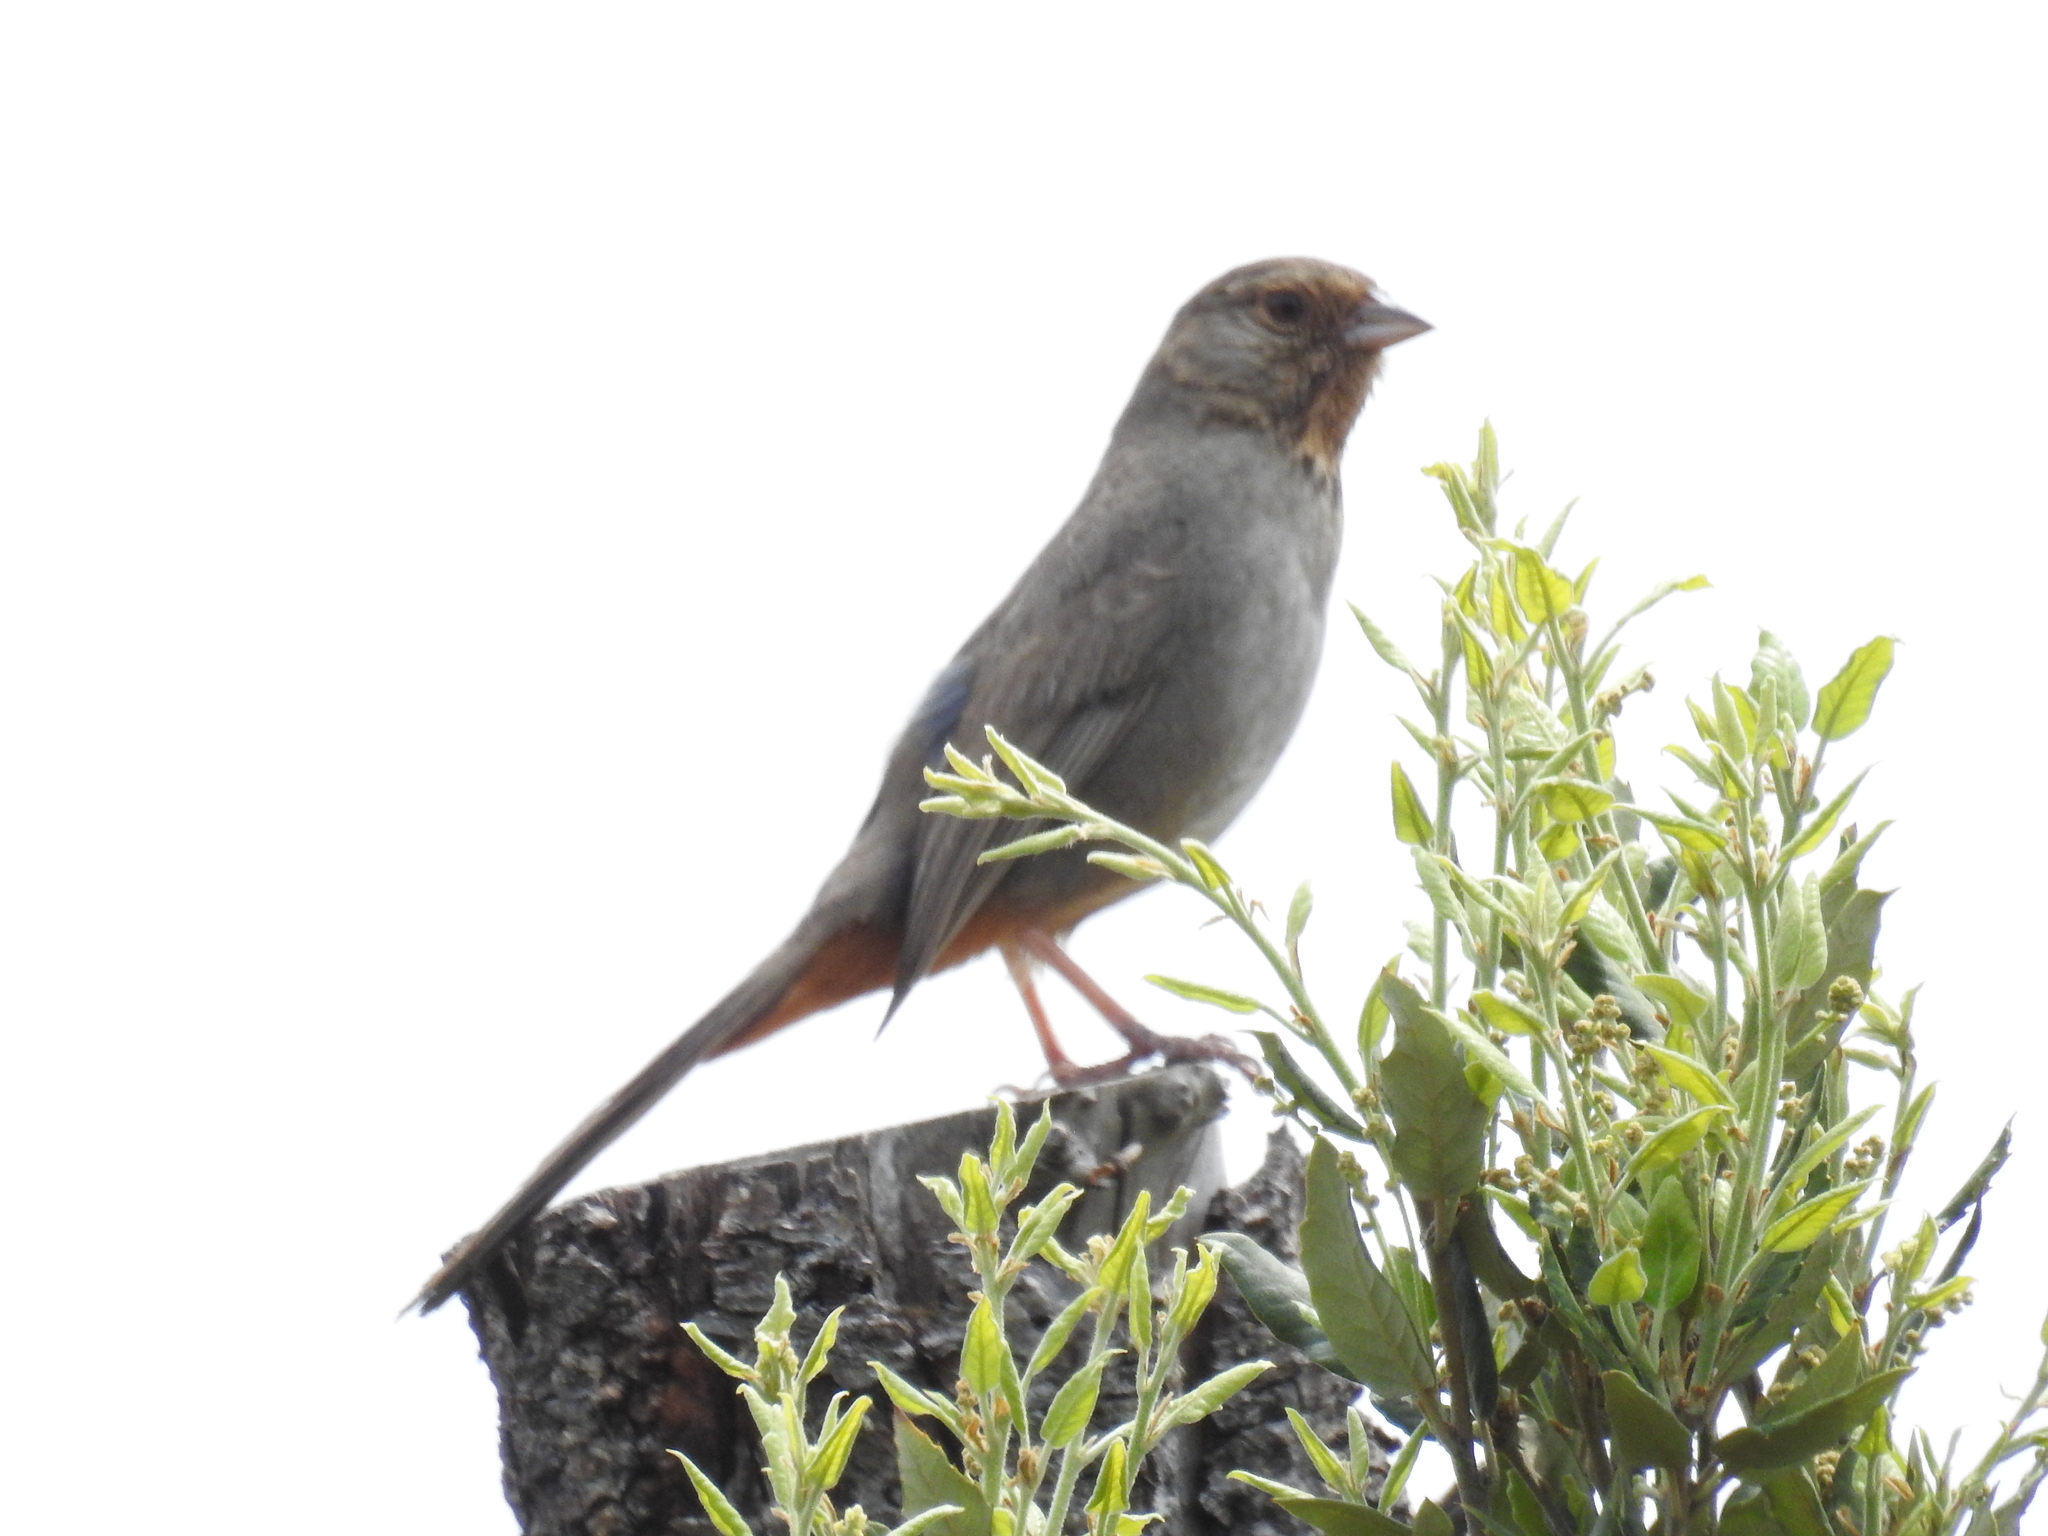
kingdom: Animalia
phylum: Chordata
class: Aves
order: Passeriformes
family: Passerellidae
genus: Melozone
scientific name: Melozone crissalis
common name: California towhee
